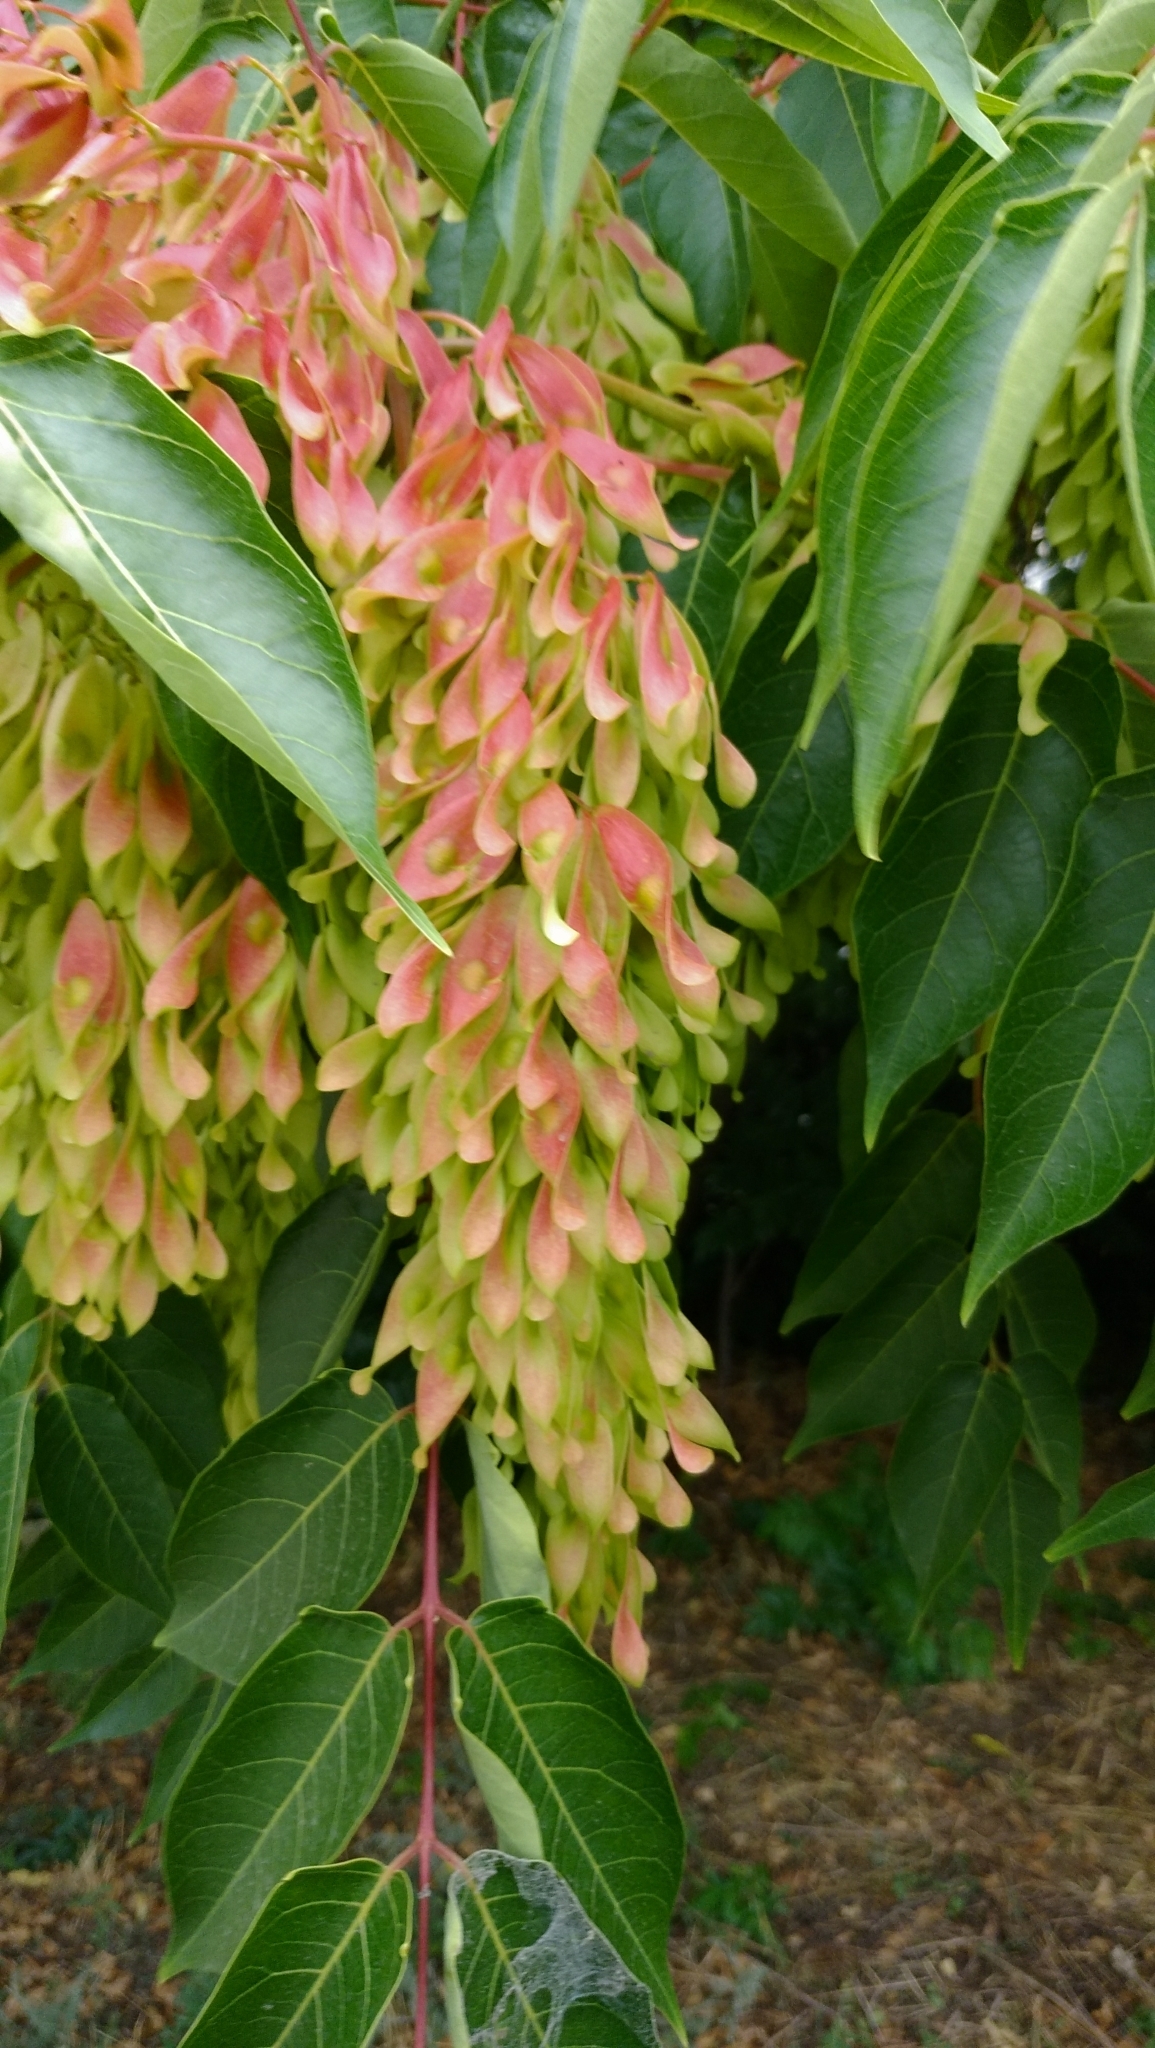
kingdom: Plantae
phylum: Tracheophyta
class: Magnoliopsida
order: Sapindales
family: Simaroubaceae
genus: Ailanthus
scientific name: Ailanthus altissima
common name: Tree-of-heaven
